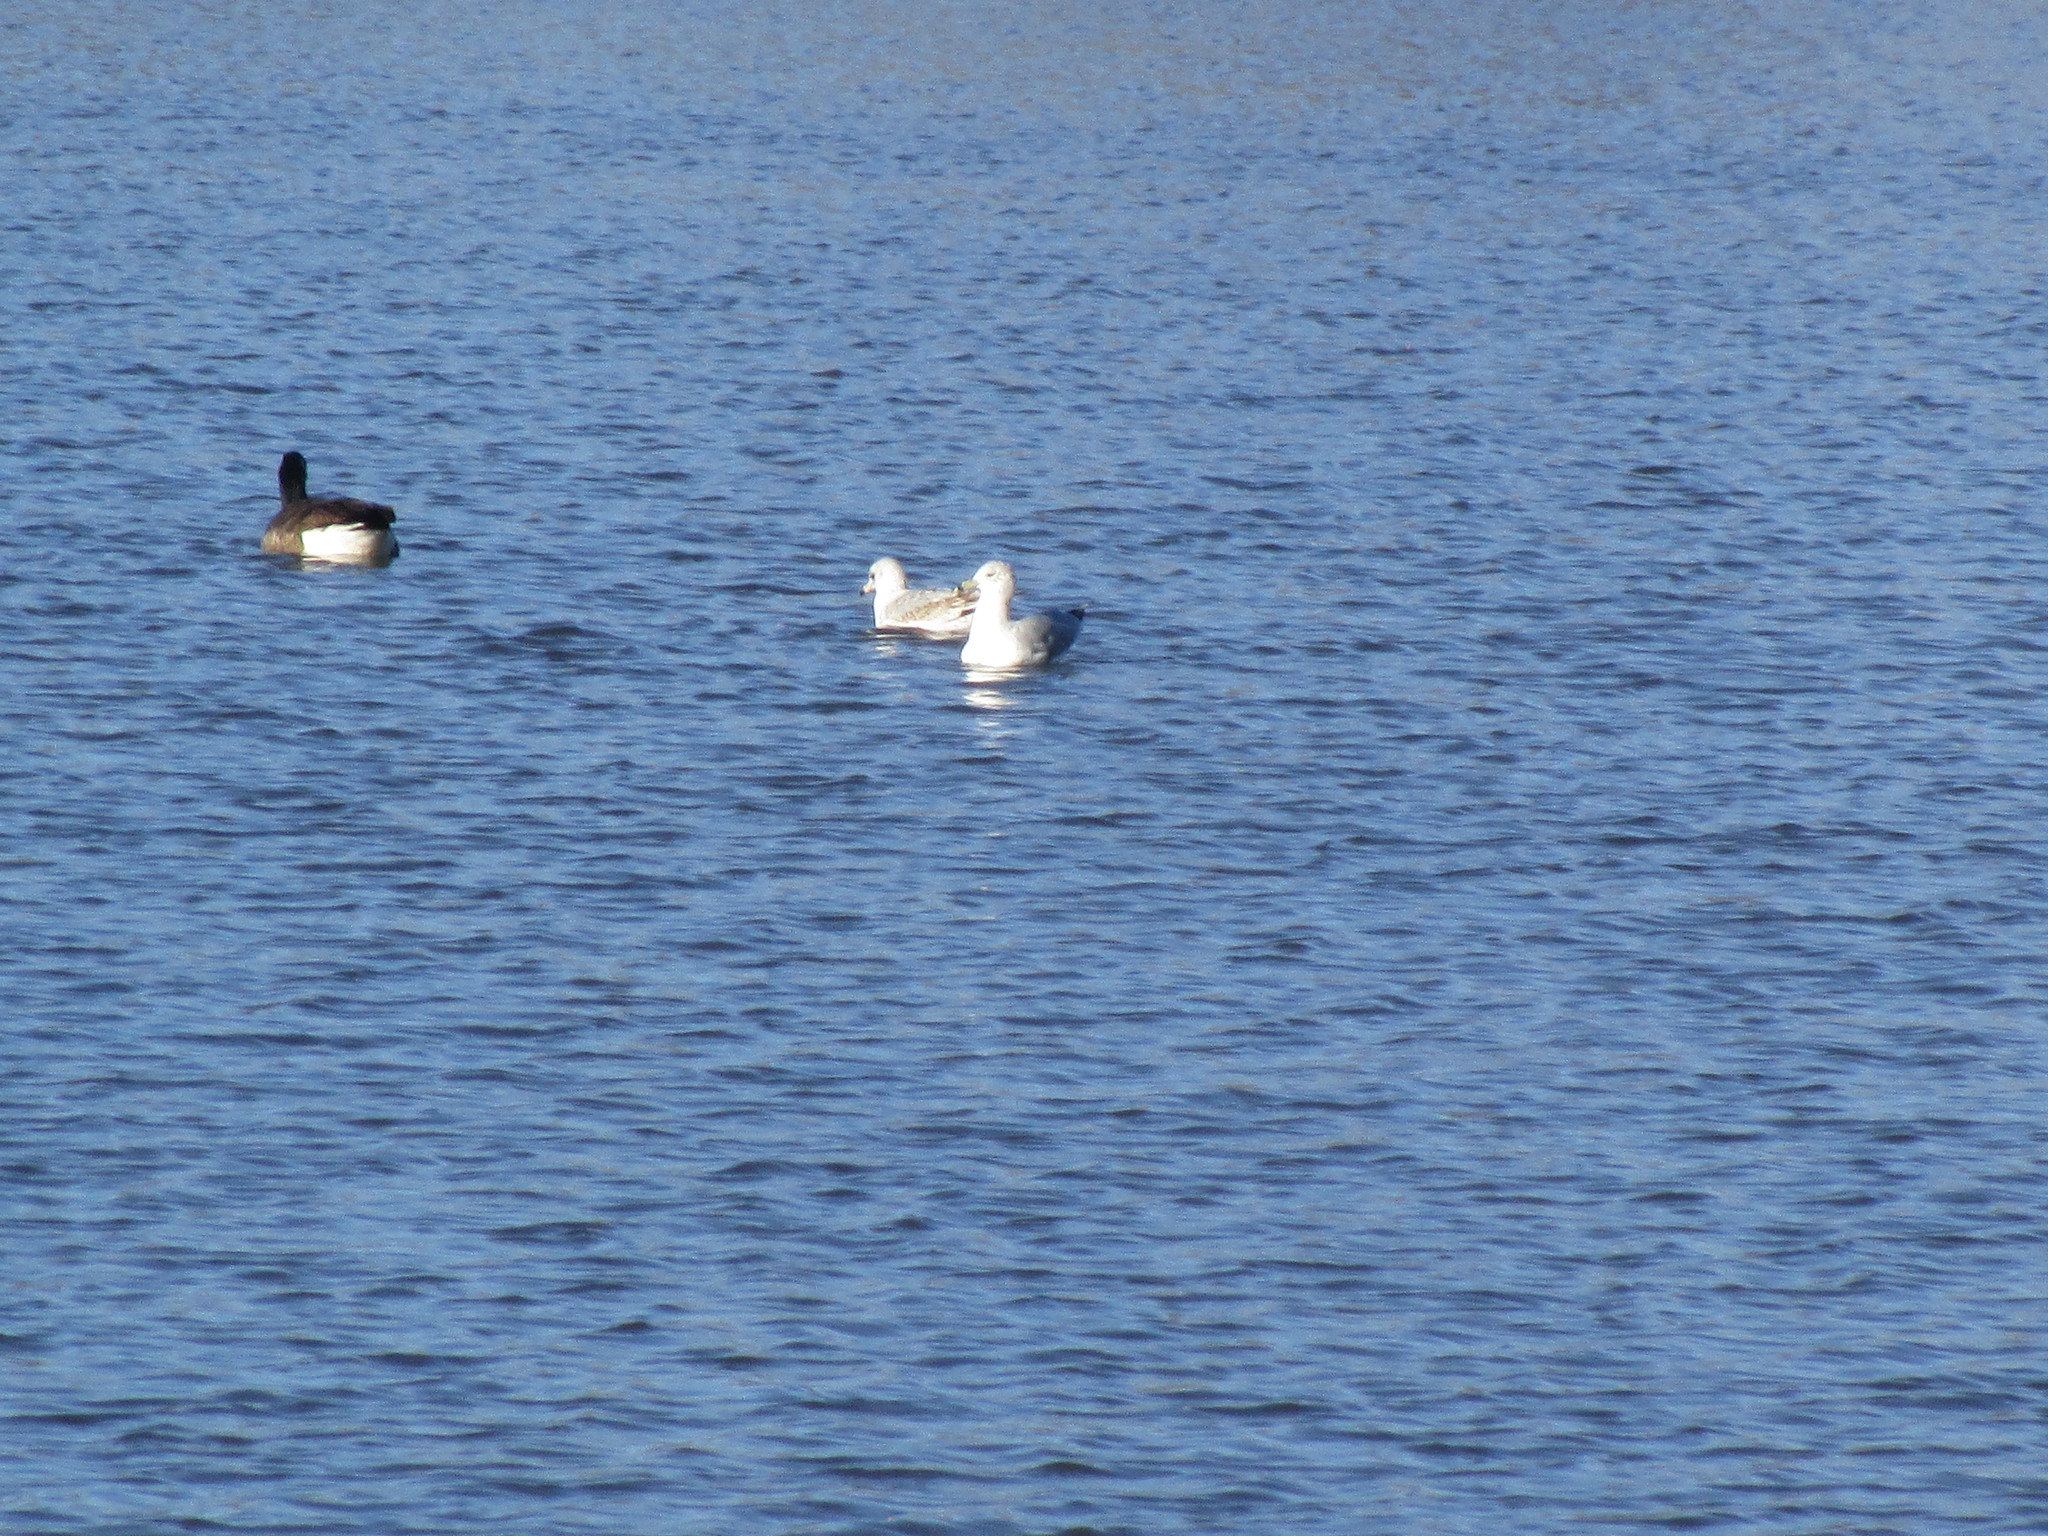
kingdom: Animalia
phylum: Chordata
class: Aves
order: Anseriformes
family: Anatidae
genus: Branta
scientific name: Branta canadensis
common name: Canada goose
